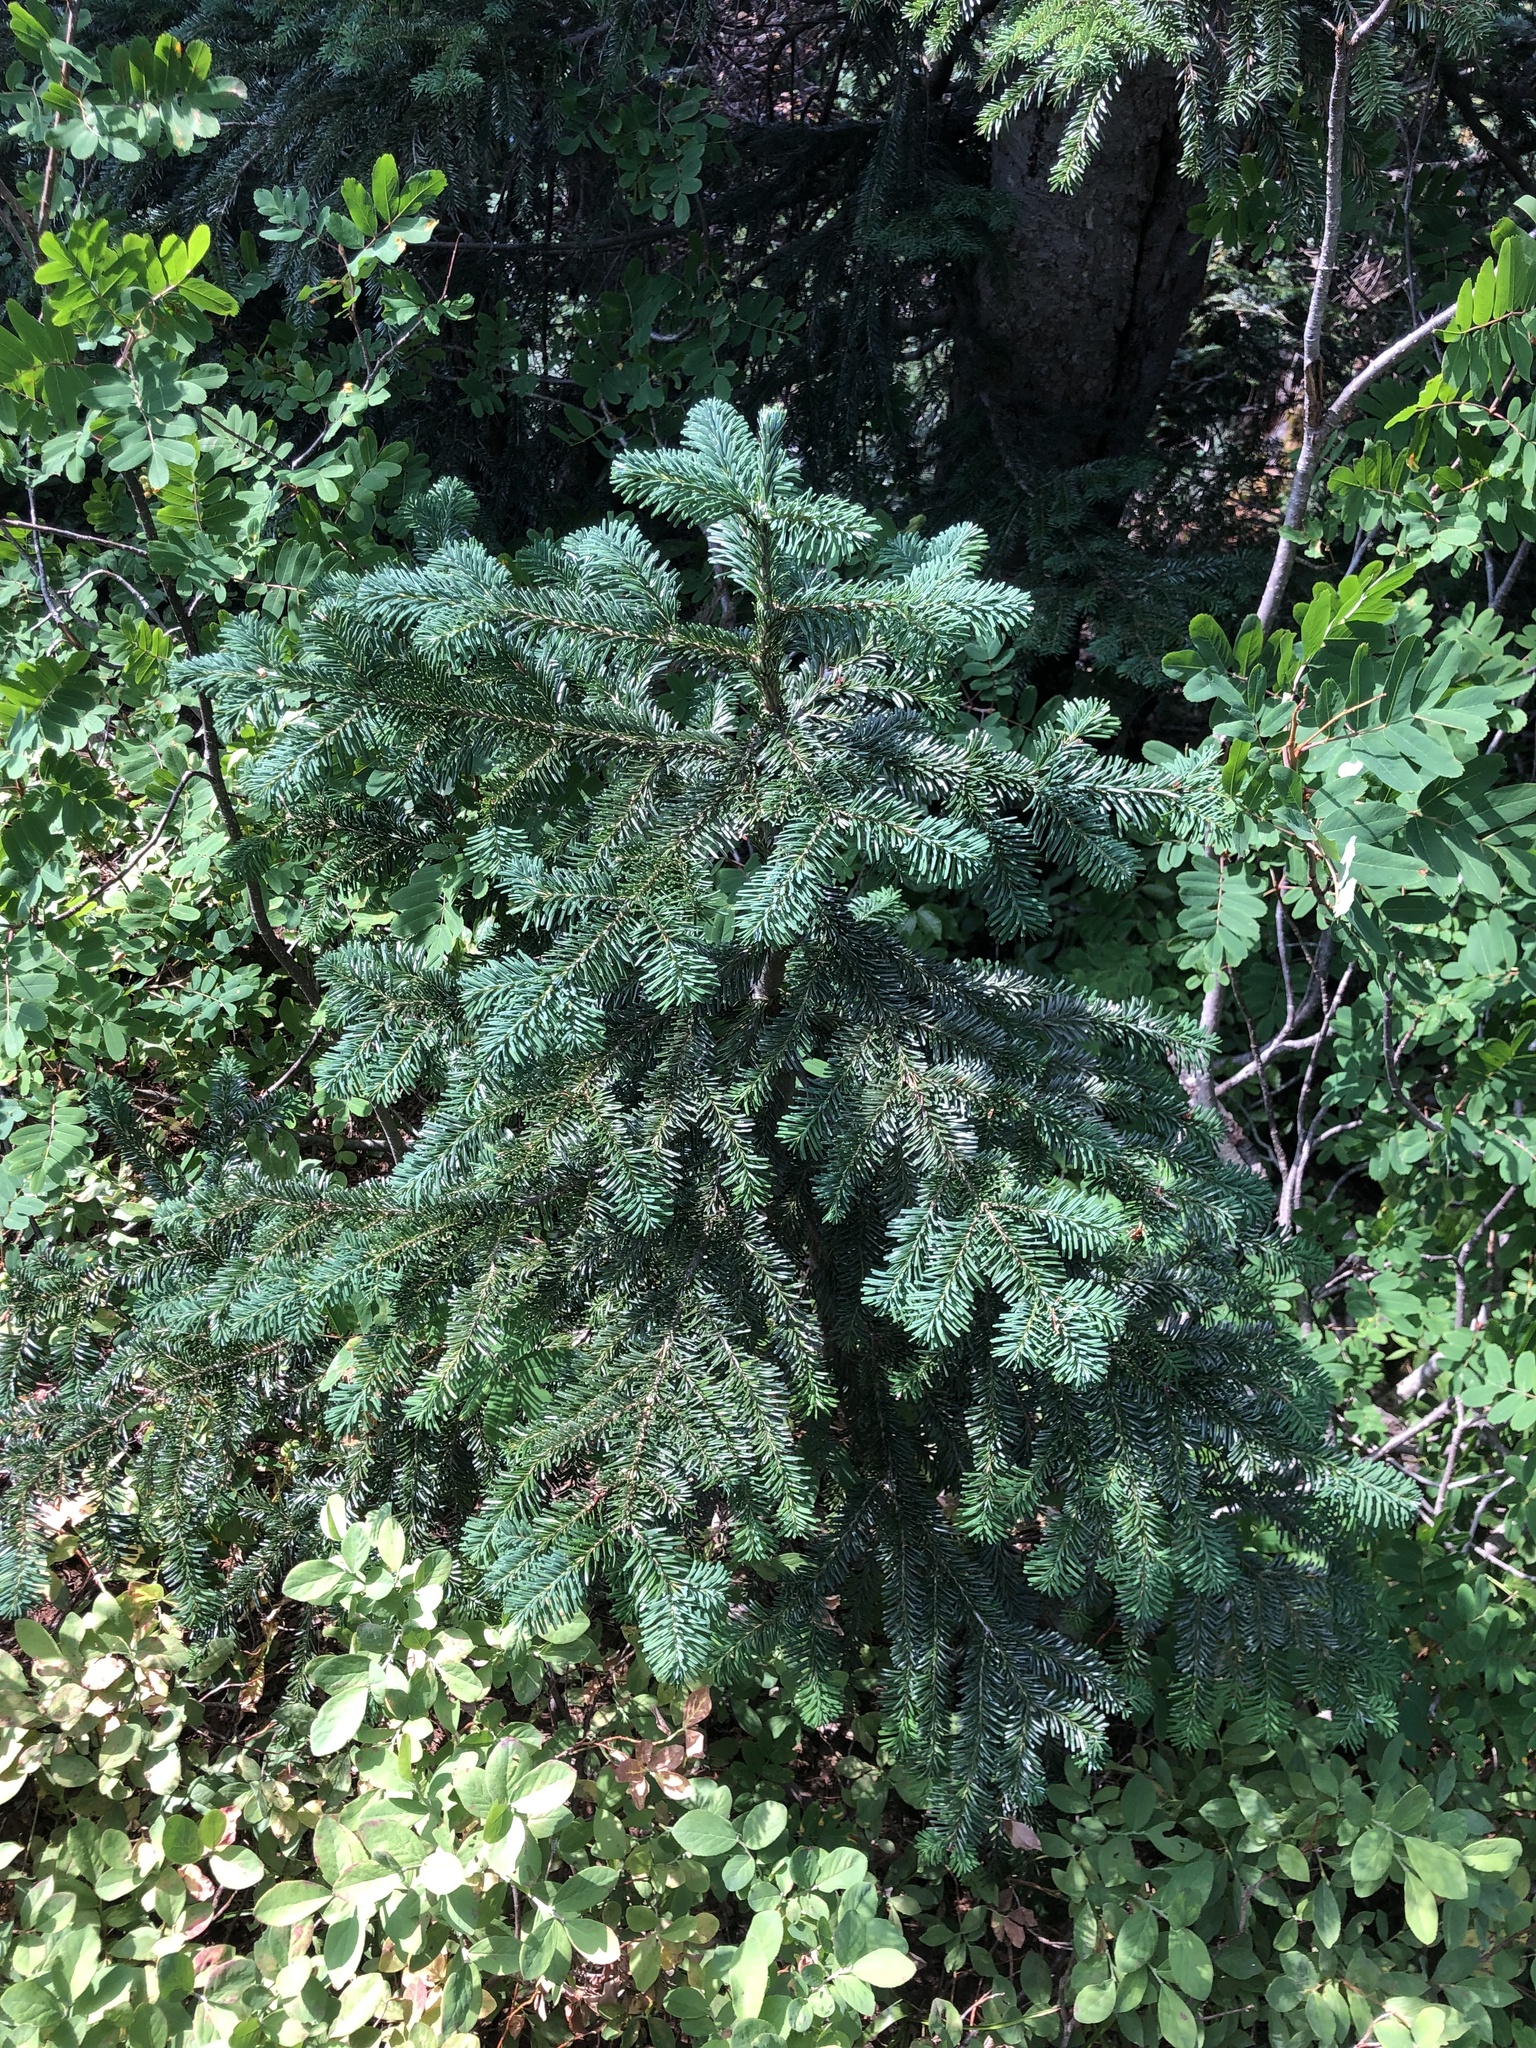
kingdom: Plantae
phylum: Tracheophyta
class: Pinopsida
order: Pinales
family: Pinaceae
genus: Abies
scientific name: Abies amabilis
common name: Pacific silver fir
